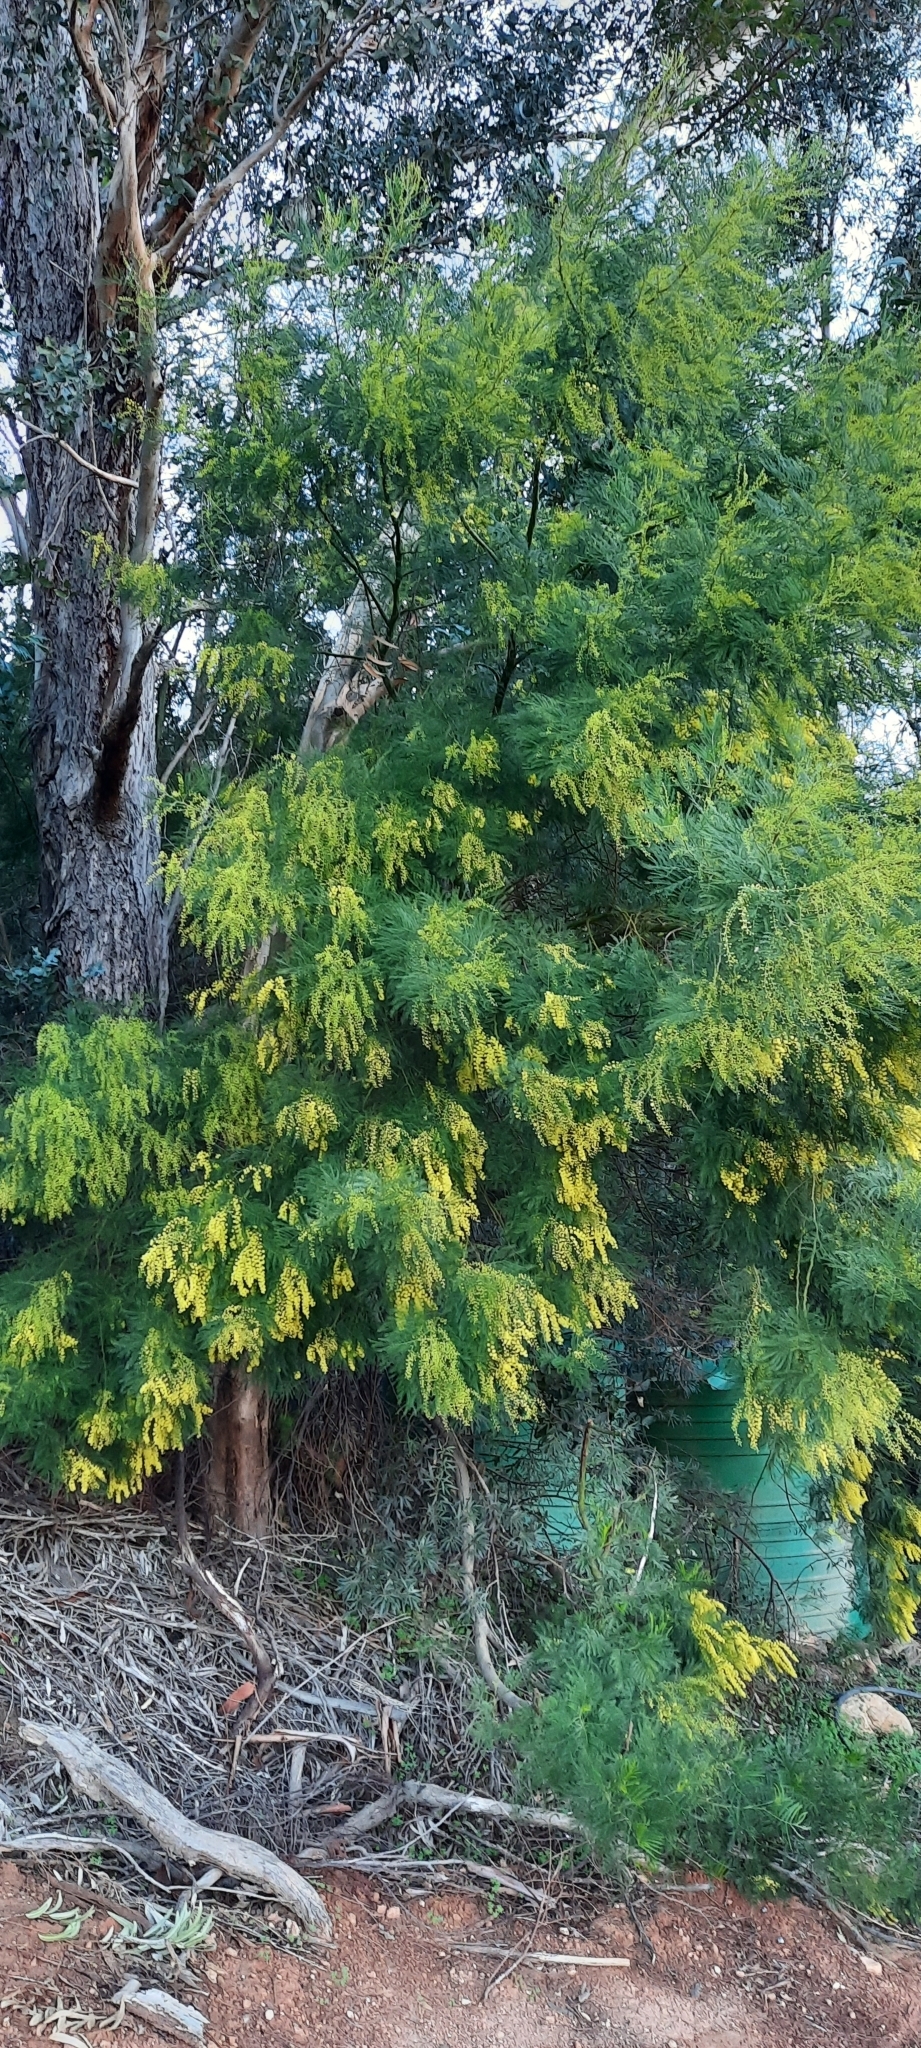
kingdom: Plantae
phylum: Tracheophyta
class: Magnoliopsida
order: Fabales
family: Fabaceae
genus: Acacia
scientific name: Acacia decurrens
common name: Green wattle
